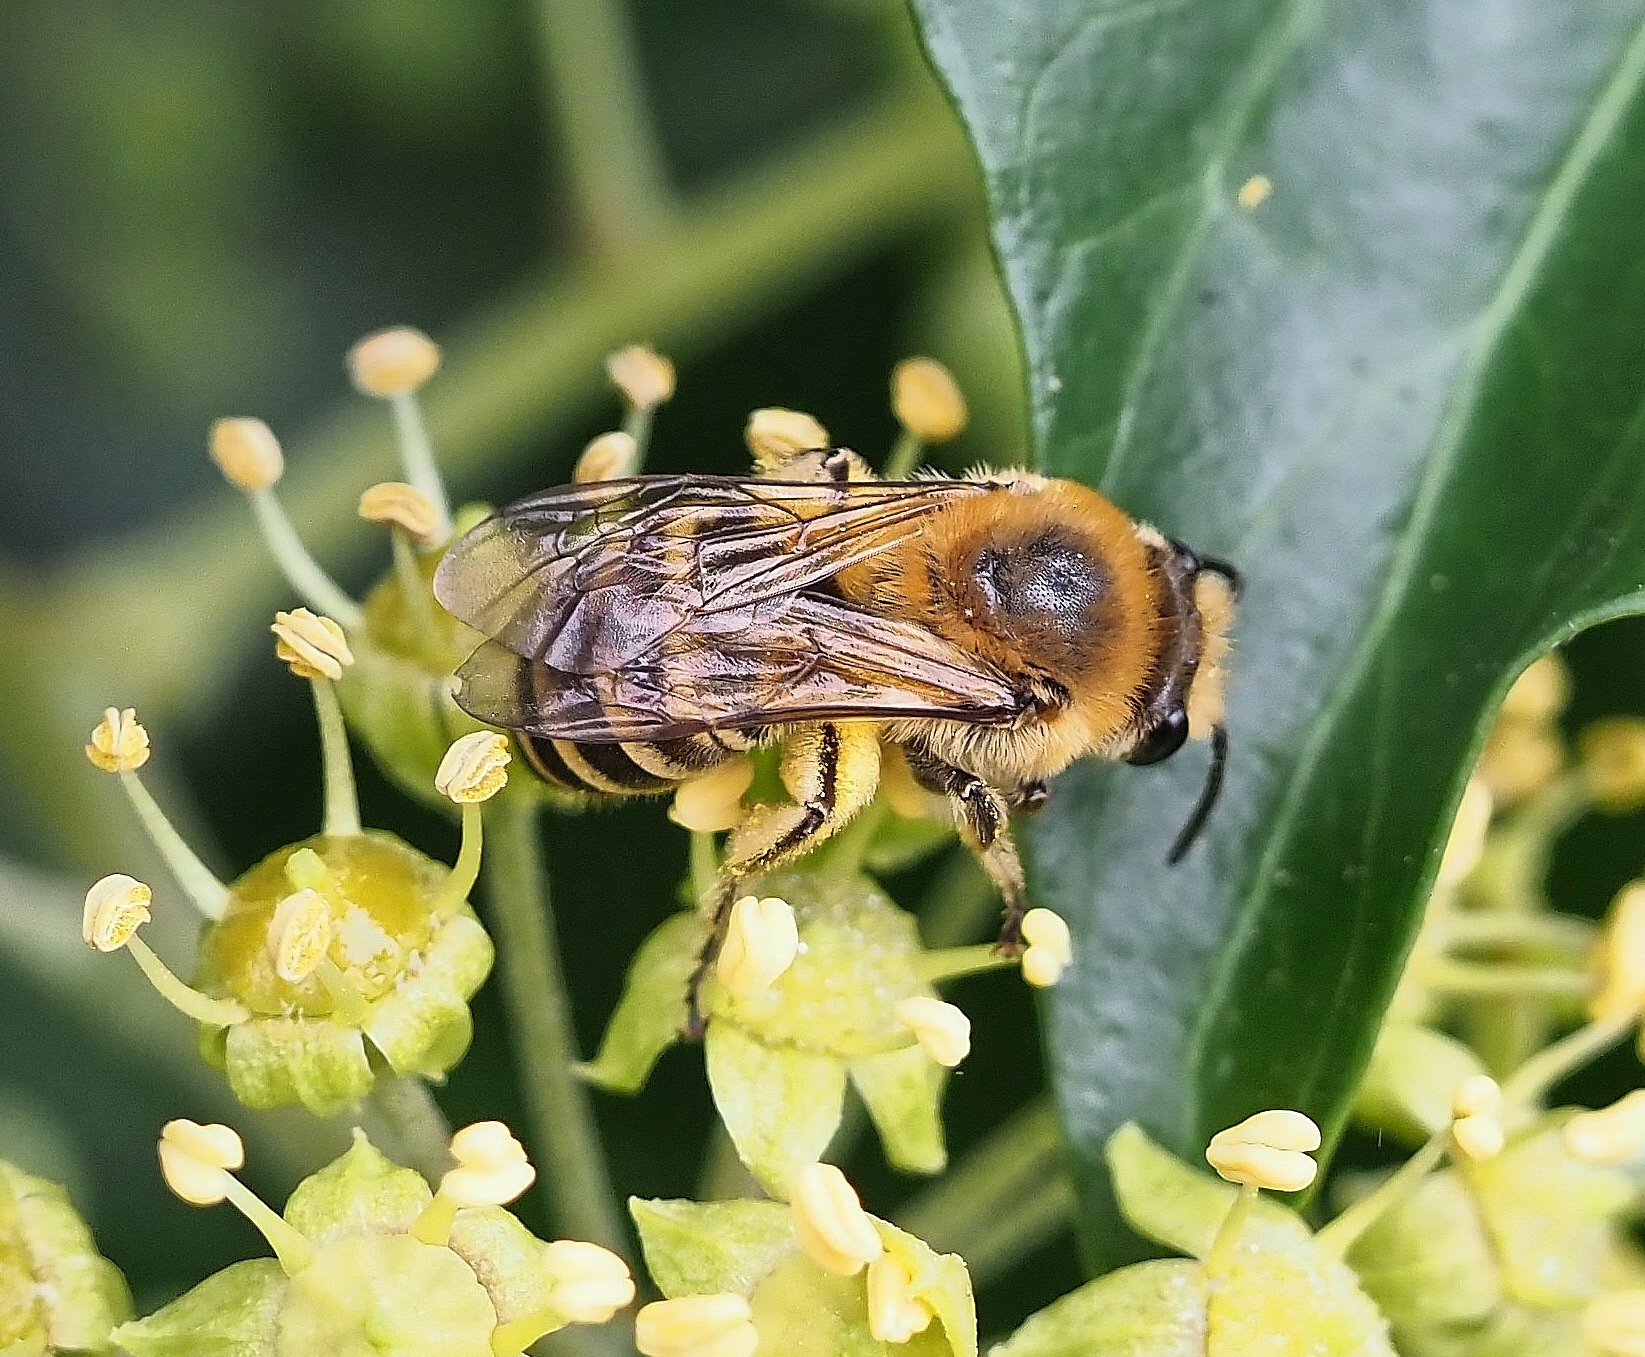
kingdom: Animalia
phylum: Arthropoda
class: Insecta
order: Hymenoptera
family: Colletidae
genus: Colletes
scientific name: Colletes hederae
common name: Ivy bee
